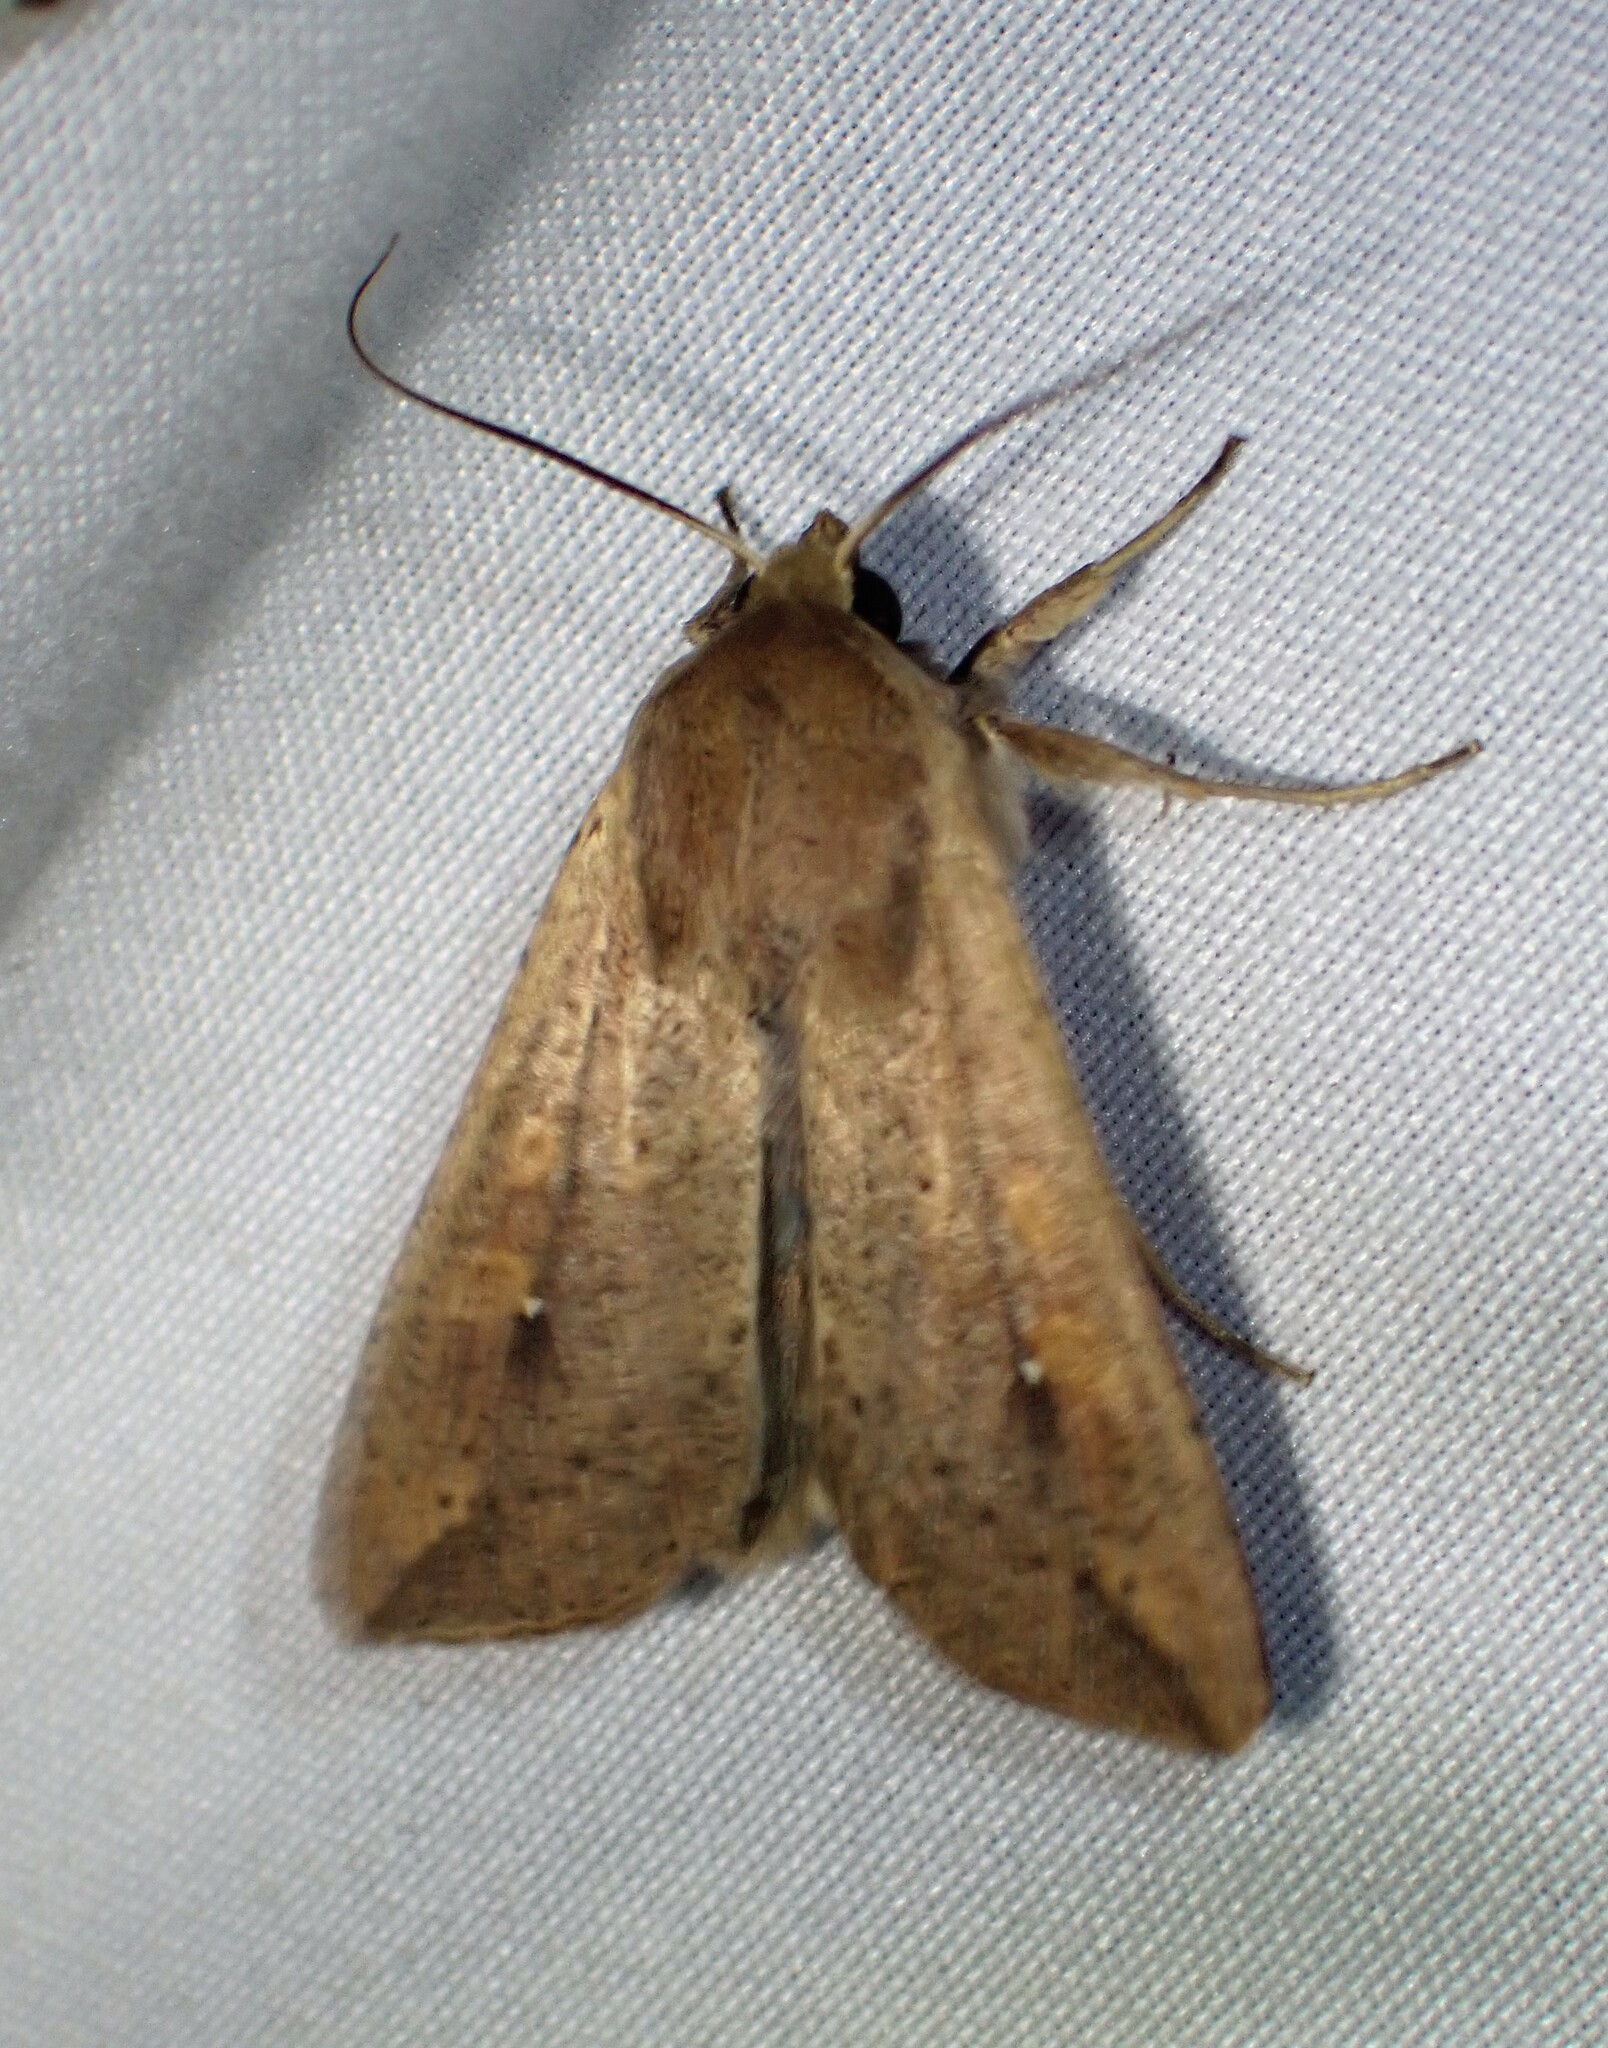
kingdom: Animalia
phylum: Arthropoda
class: Insecta
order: Lepidoptera
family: Noctuidae
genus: Mythimna
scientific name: Mythimna unipuncta
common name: White-speck
